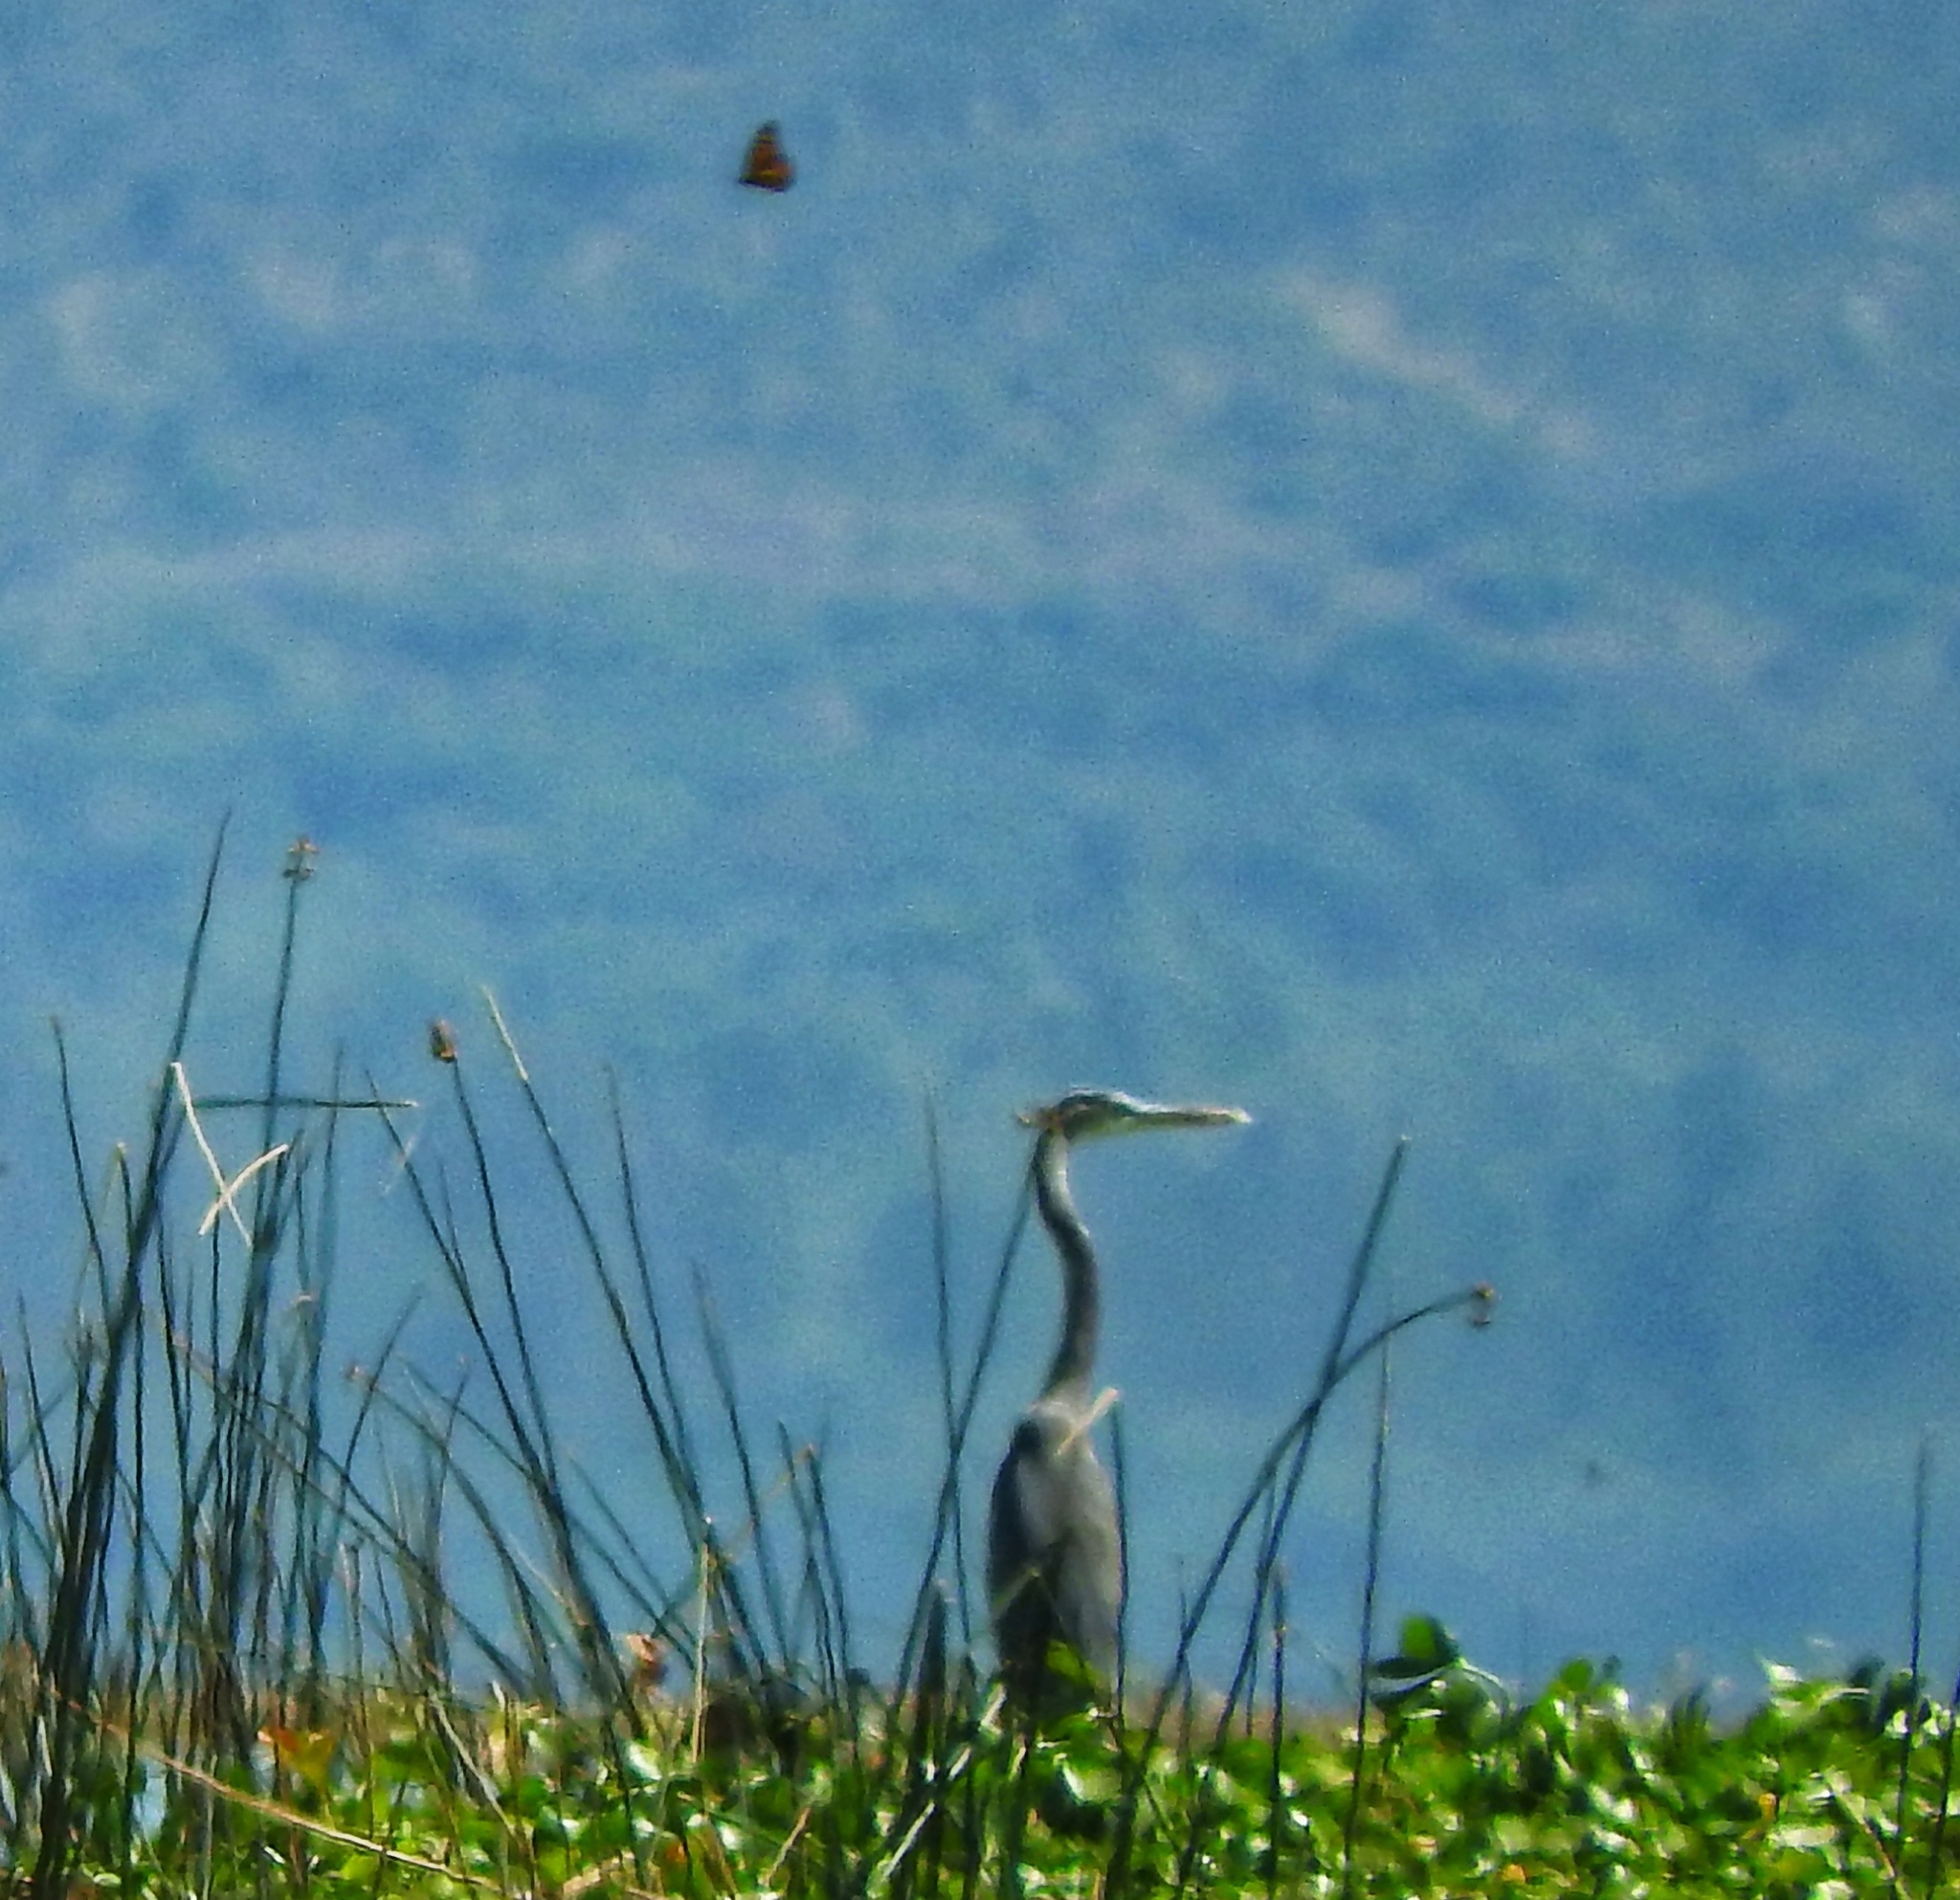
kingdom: Animalia
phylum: Arthropoda
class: Insecta
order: Lepidoptera
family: Nymphalidae
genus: Danaus
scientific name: Danaus plexippus
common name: Monarch
